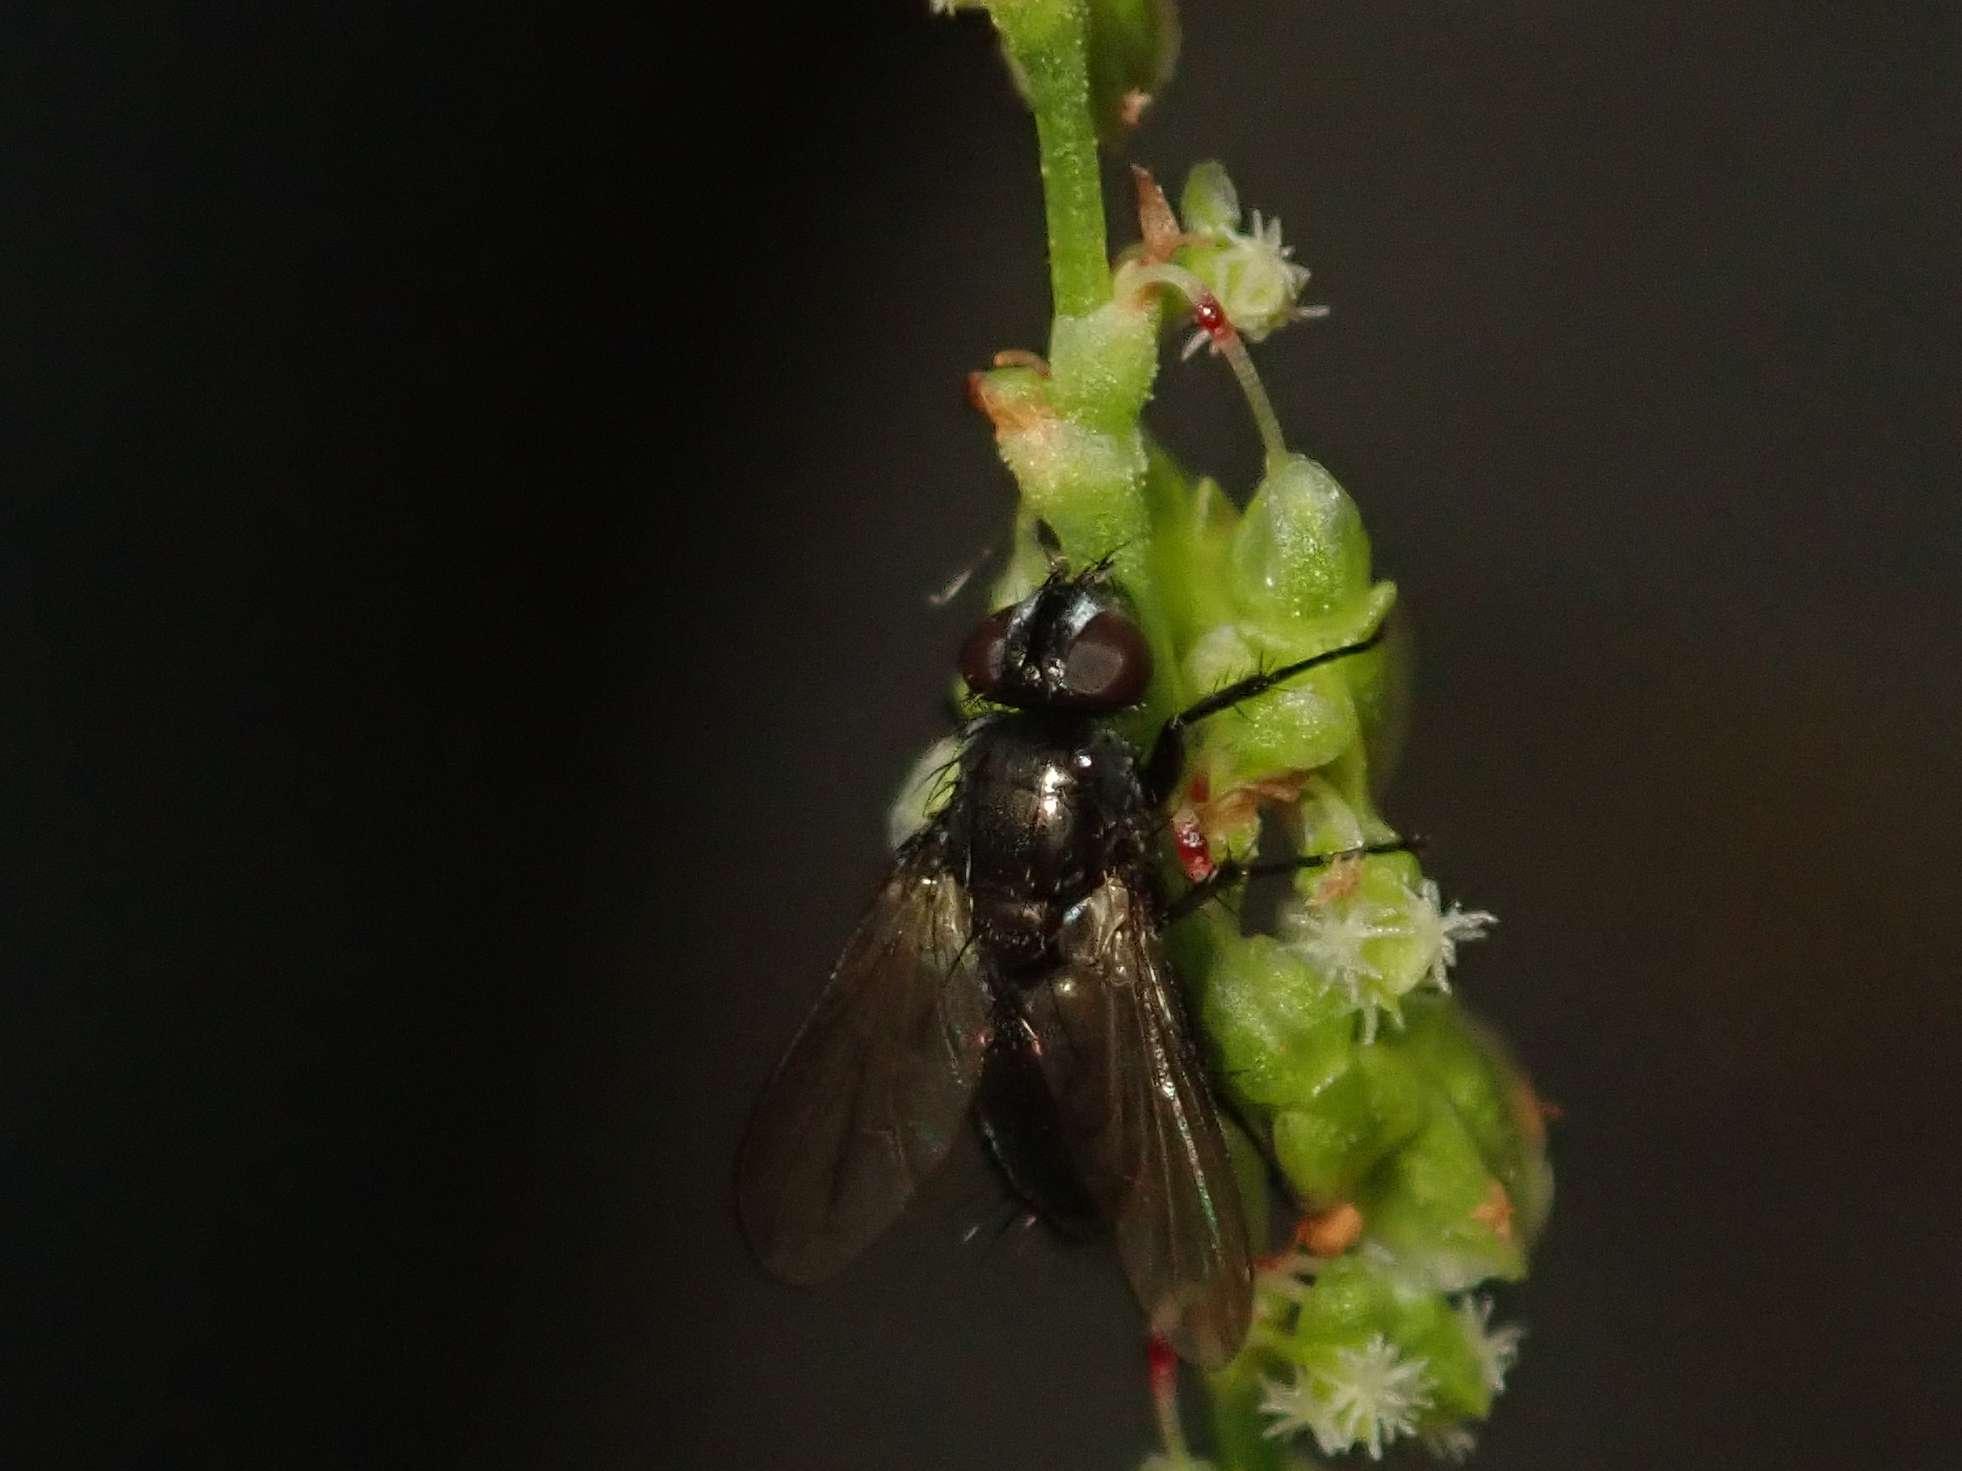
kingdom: Animalia
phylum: Arthropoda
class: Insecta
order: Diptera
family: Calliphoridae
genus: Rhinophora
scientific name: Rhinophora lepida
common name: Pouting woodlouse-fly
